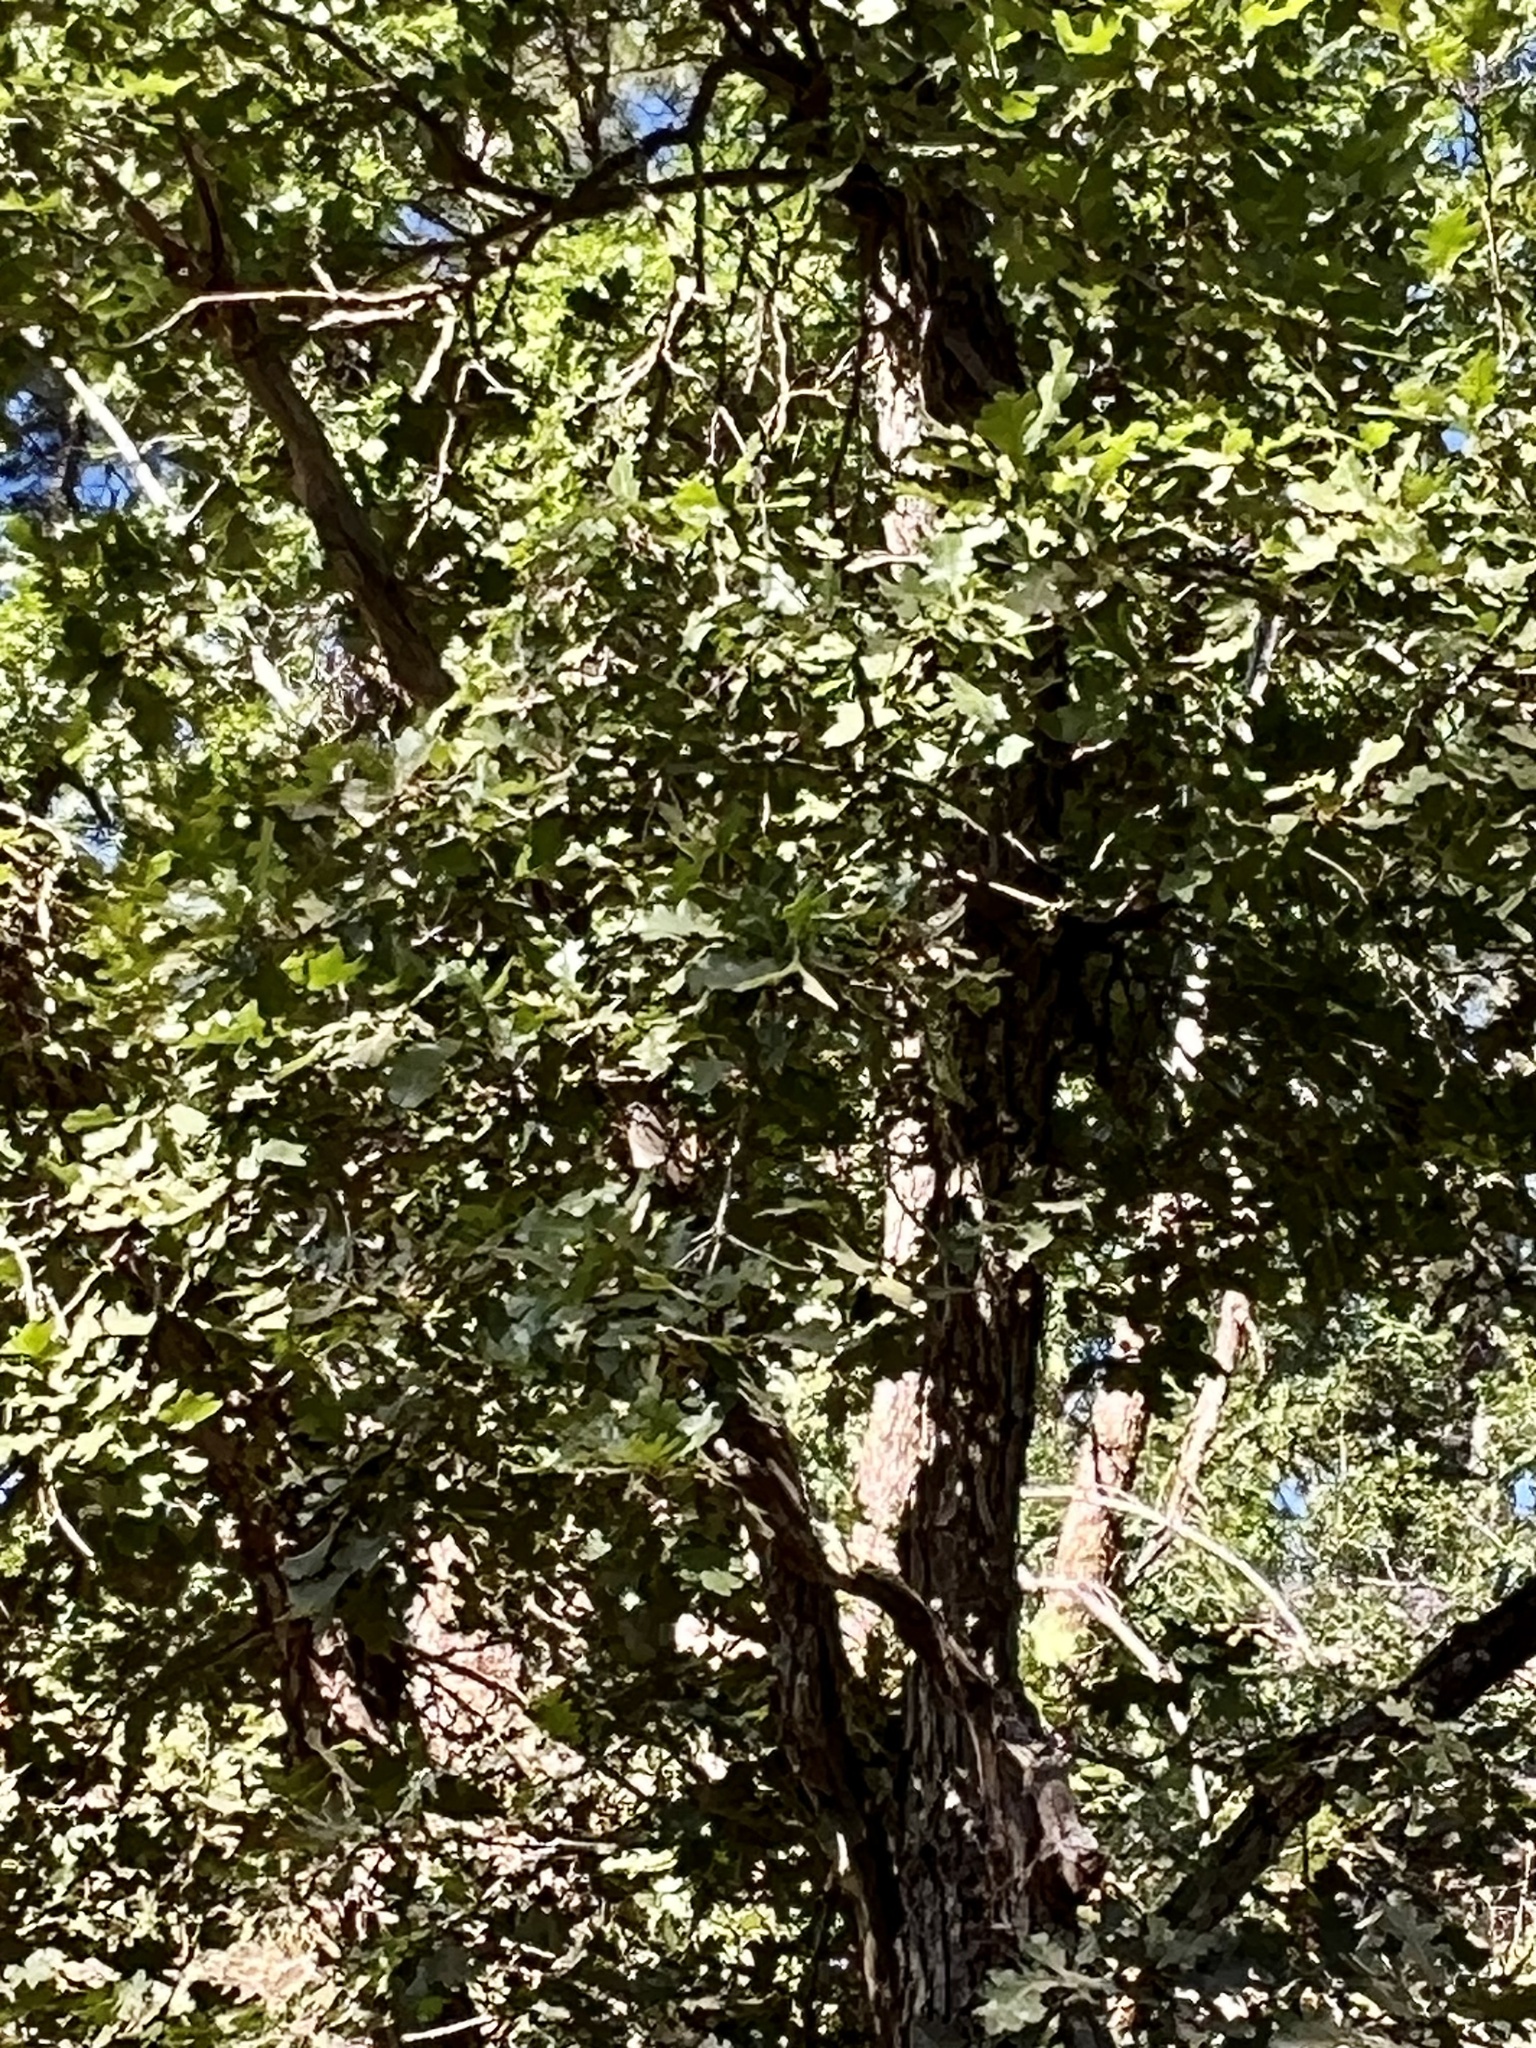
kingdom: Plantae
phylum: Tracheophyta
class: Magnoliopsida
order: Fagales
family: Fagaceae
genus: Quercus
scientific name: Quercus gambelii
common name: Gambel oak
